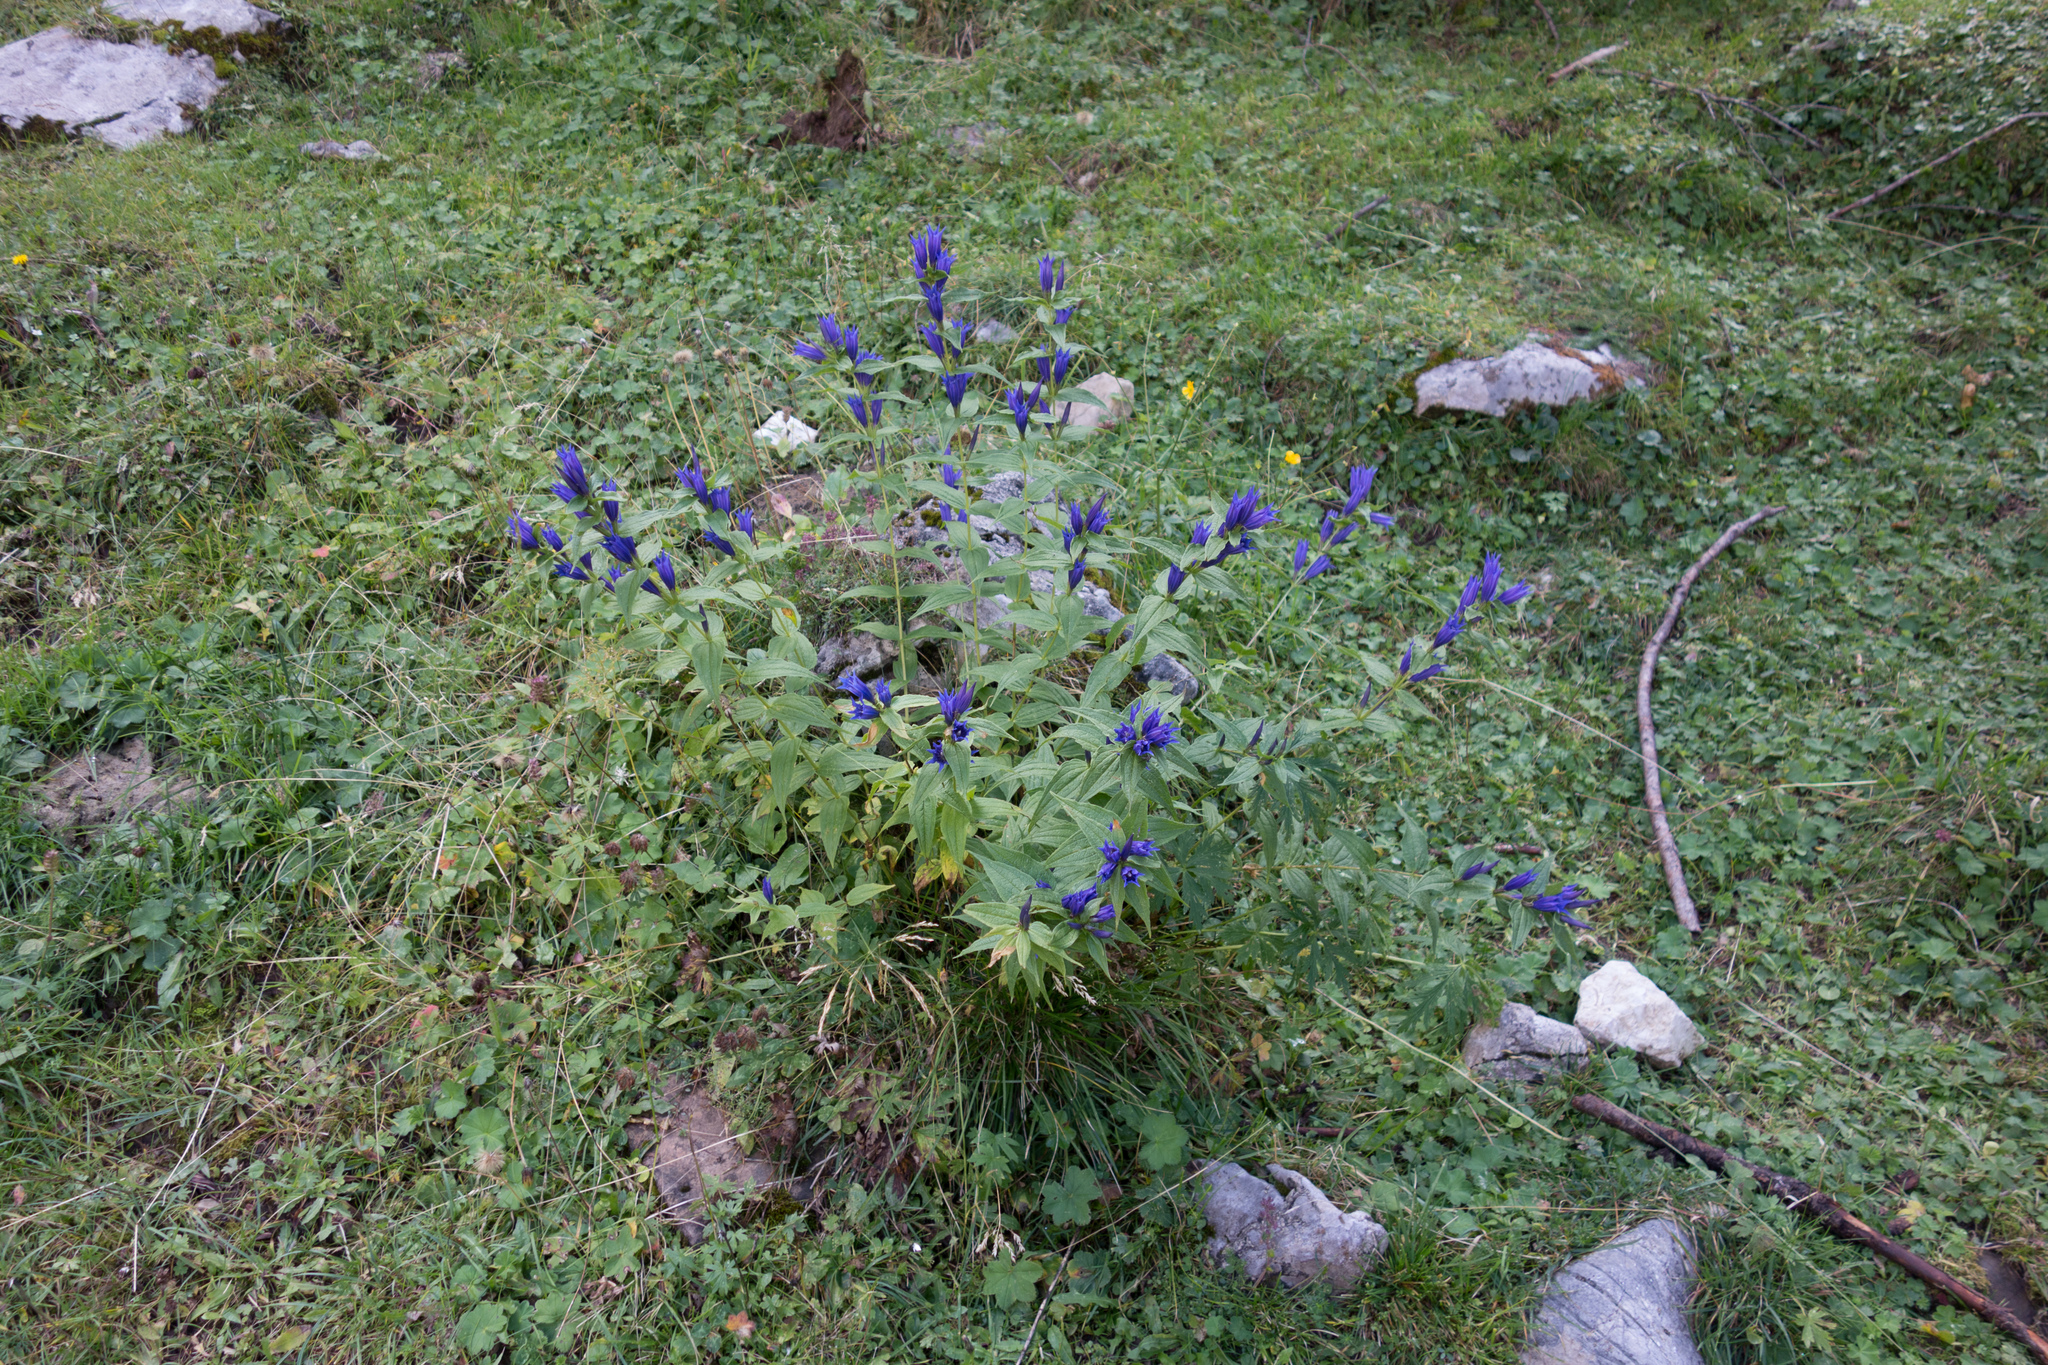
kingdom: Plantae
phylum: Tracheophyta
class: Magnoliopsida
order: Gentianales
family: Gentianaceae
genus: Gentiana
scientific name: Gentiana asclepiadea
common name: Willow gentian
